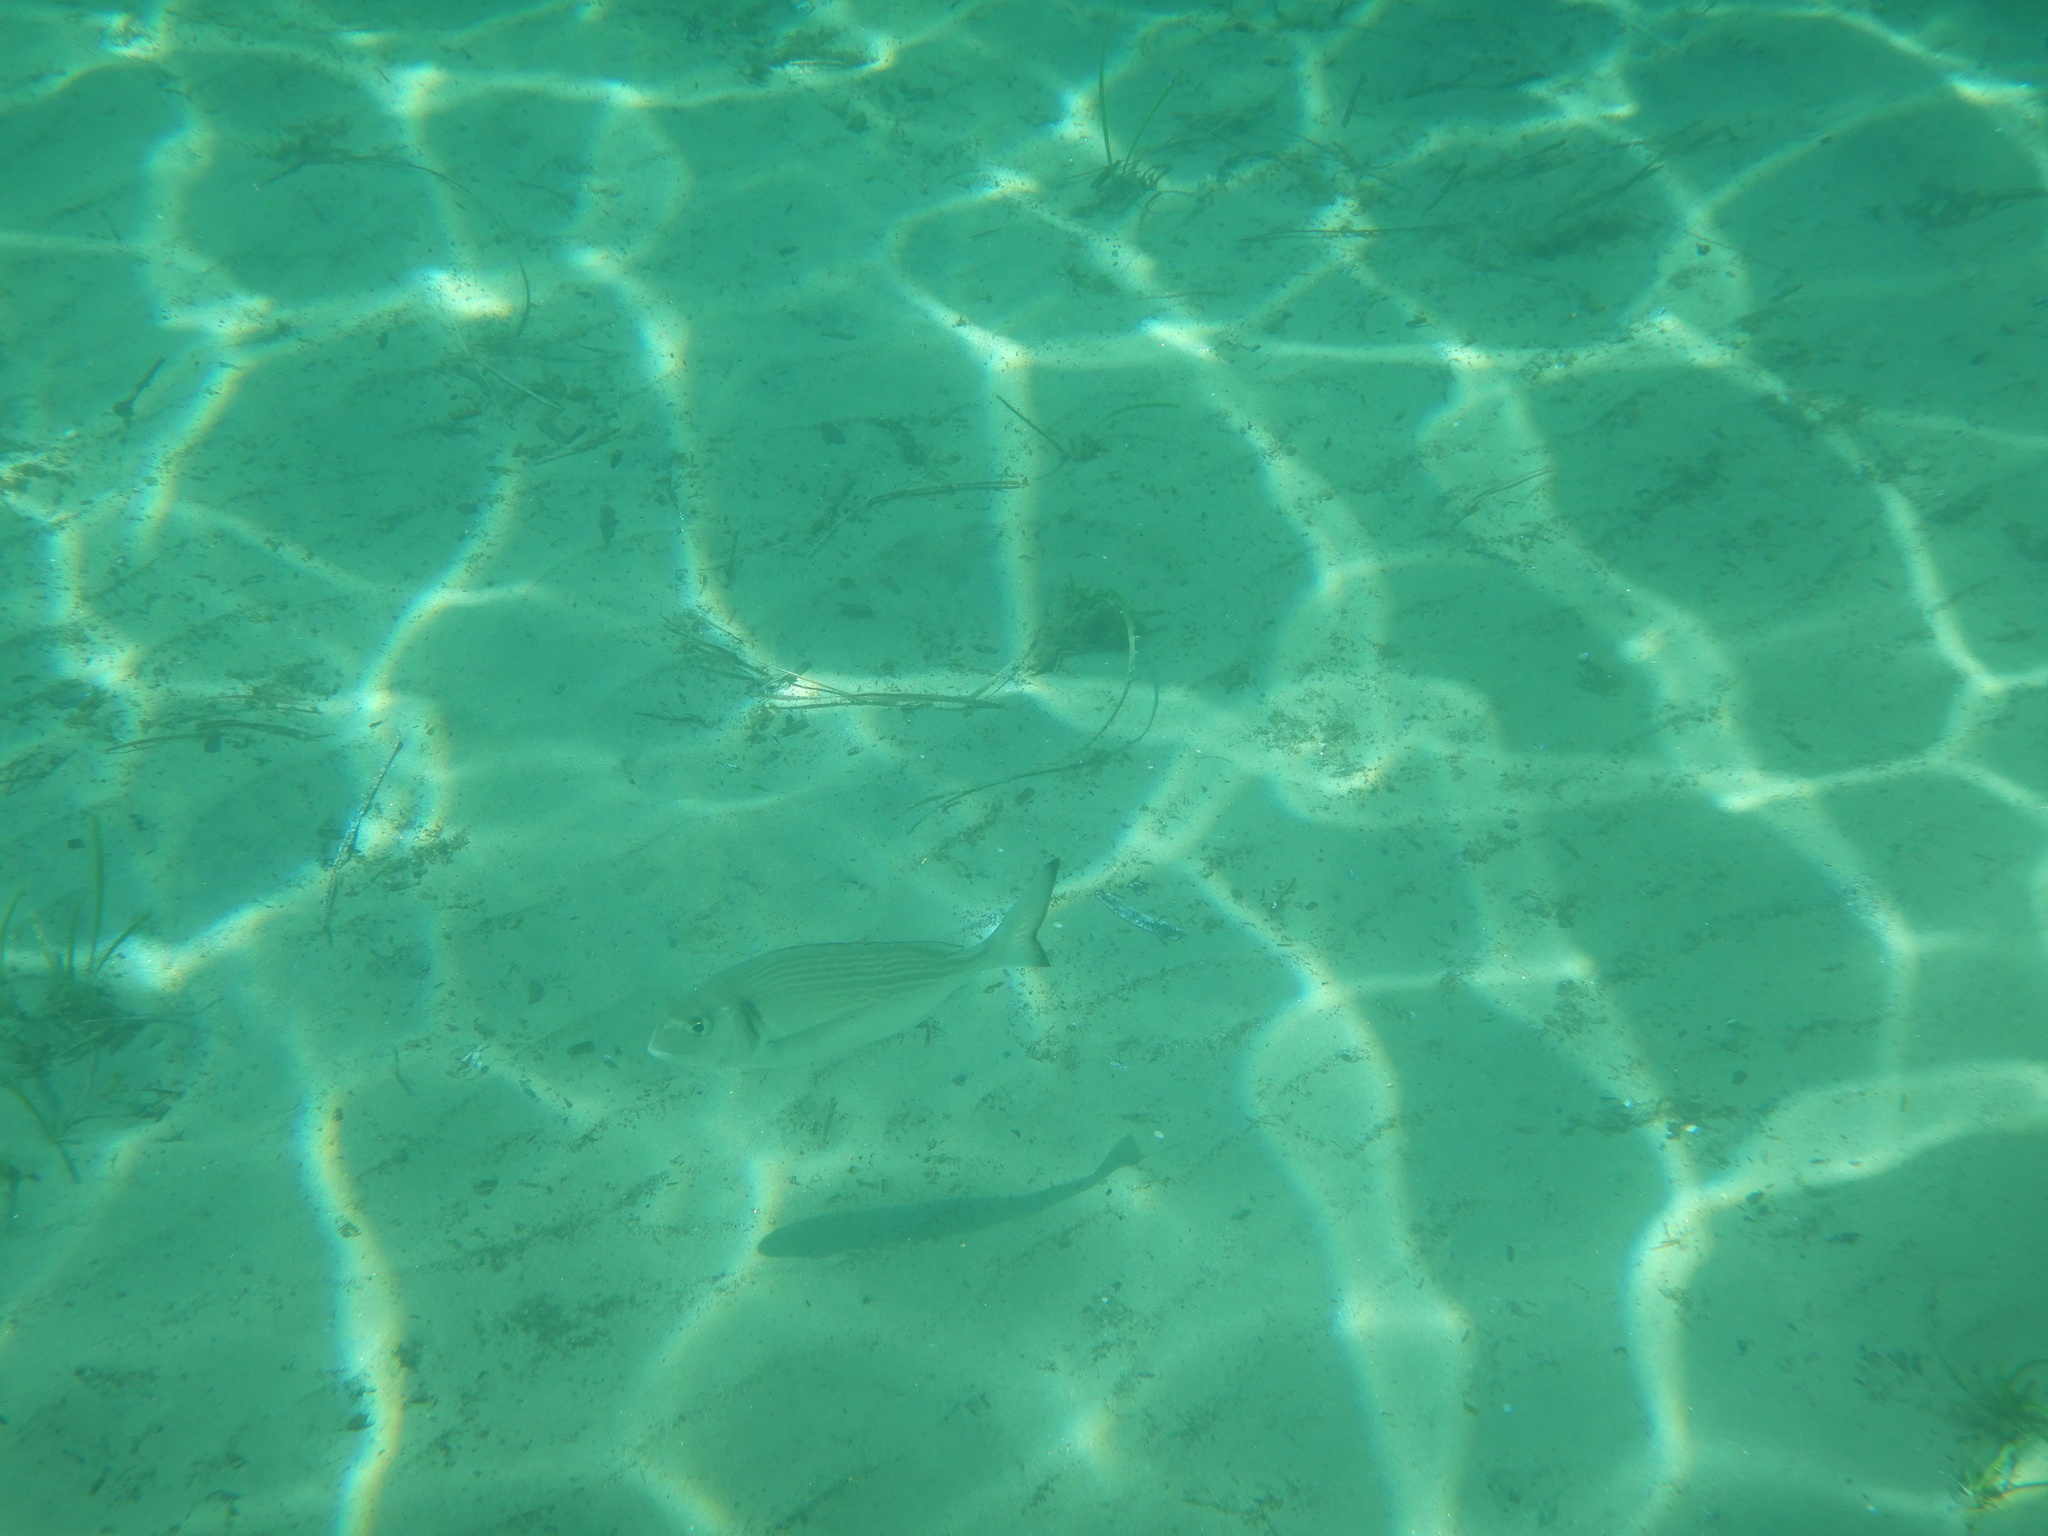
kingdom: Animalia
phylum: Chordata
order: Perciformes
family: Sparidae
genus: Sparus
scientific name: Sparus aurata
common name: Gilthead
